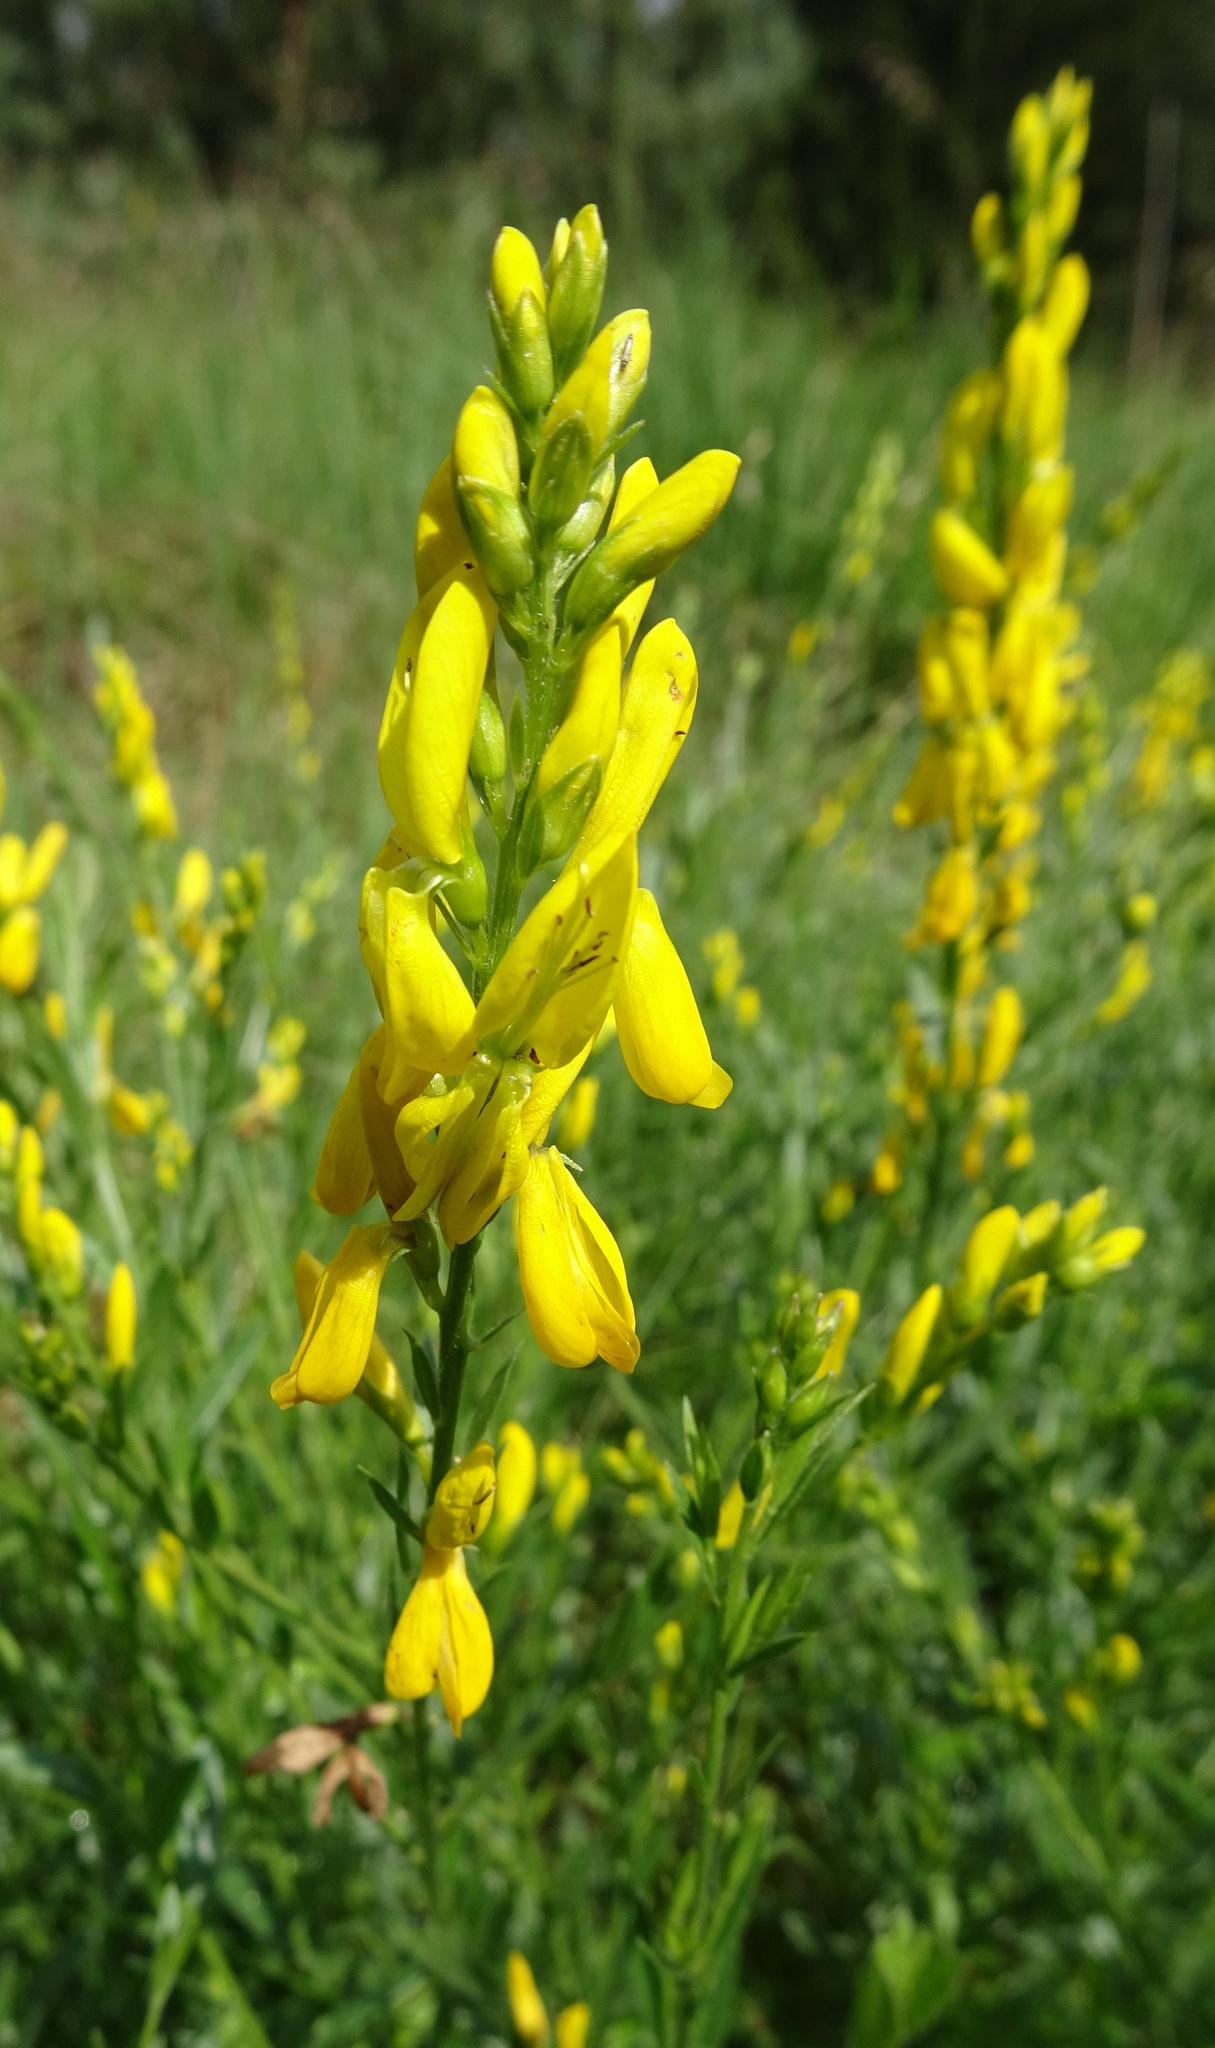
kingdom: Plantae
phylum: Tracheophyta
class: Magnoliopsida
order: Fabales
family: Fabaceae
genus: Genista
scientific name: Genista tinctoria
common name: Dyer's greenweed
